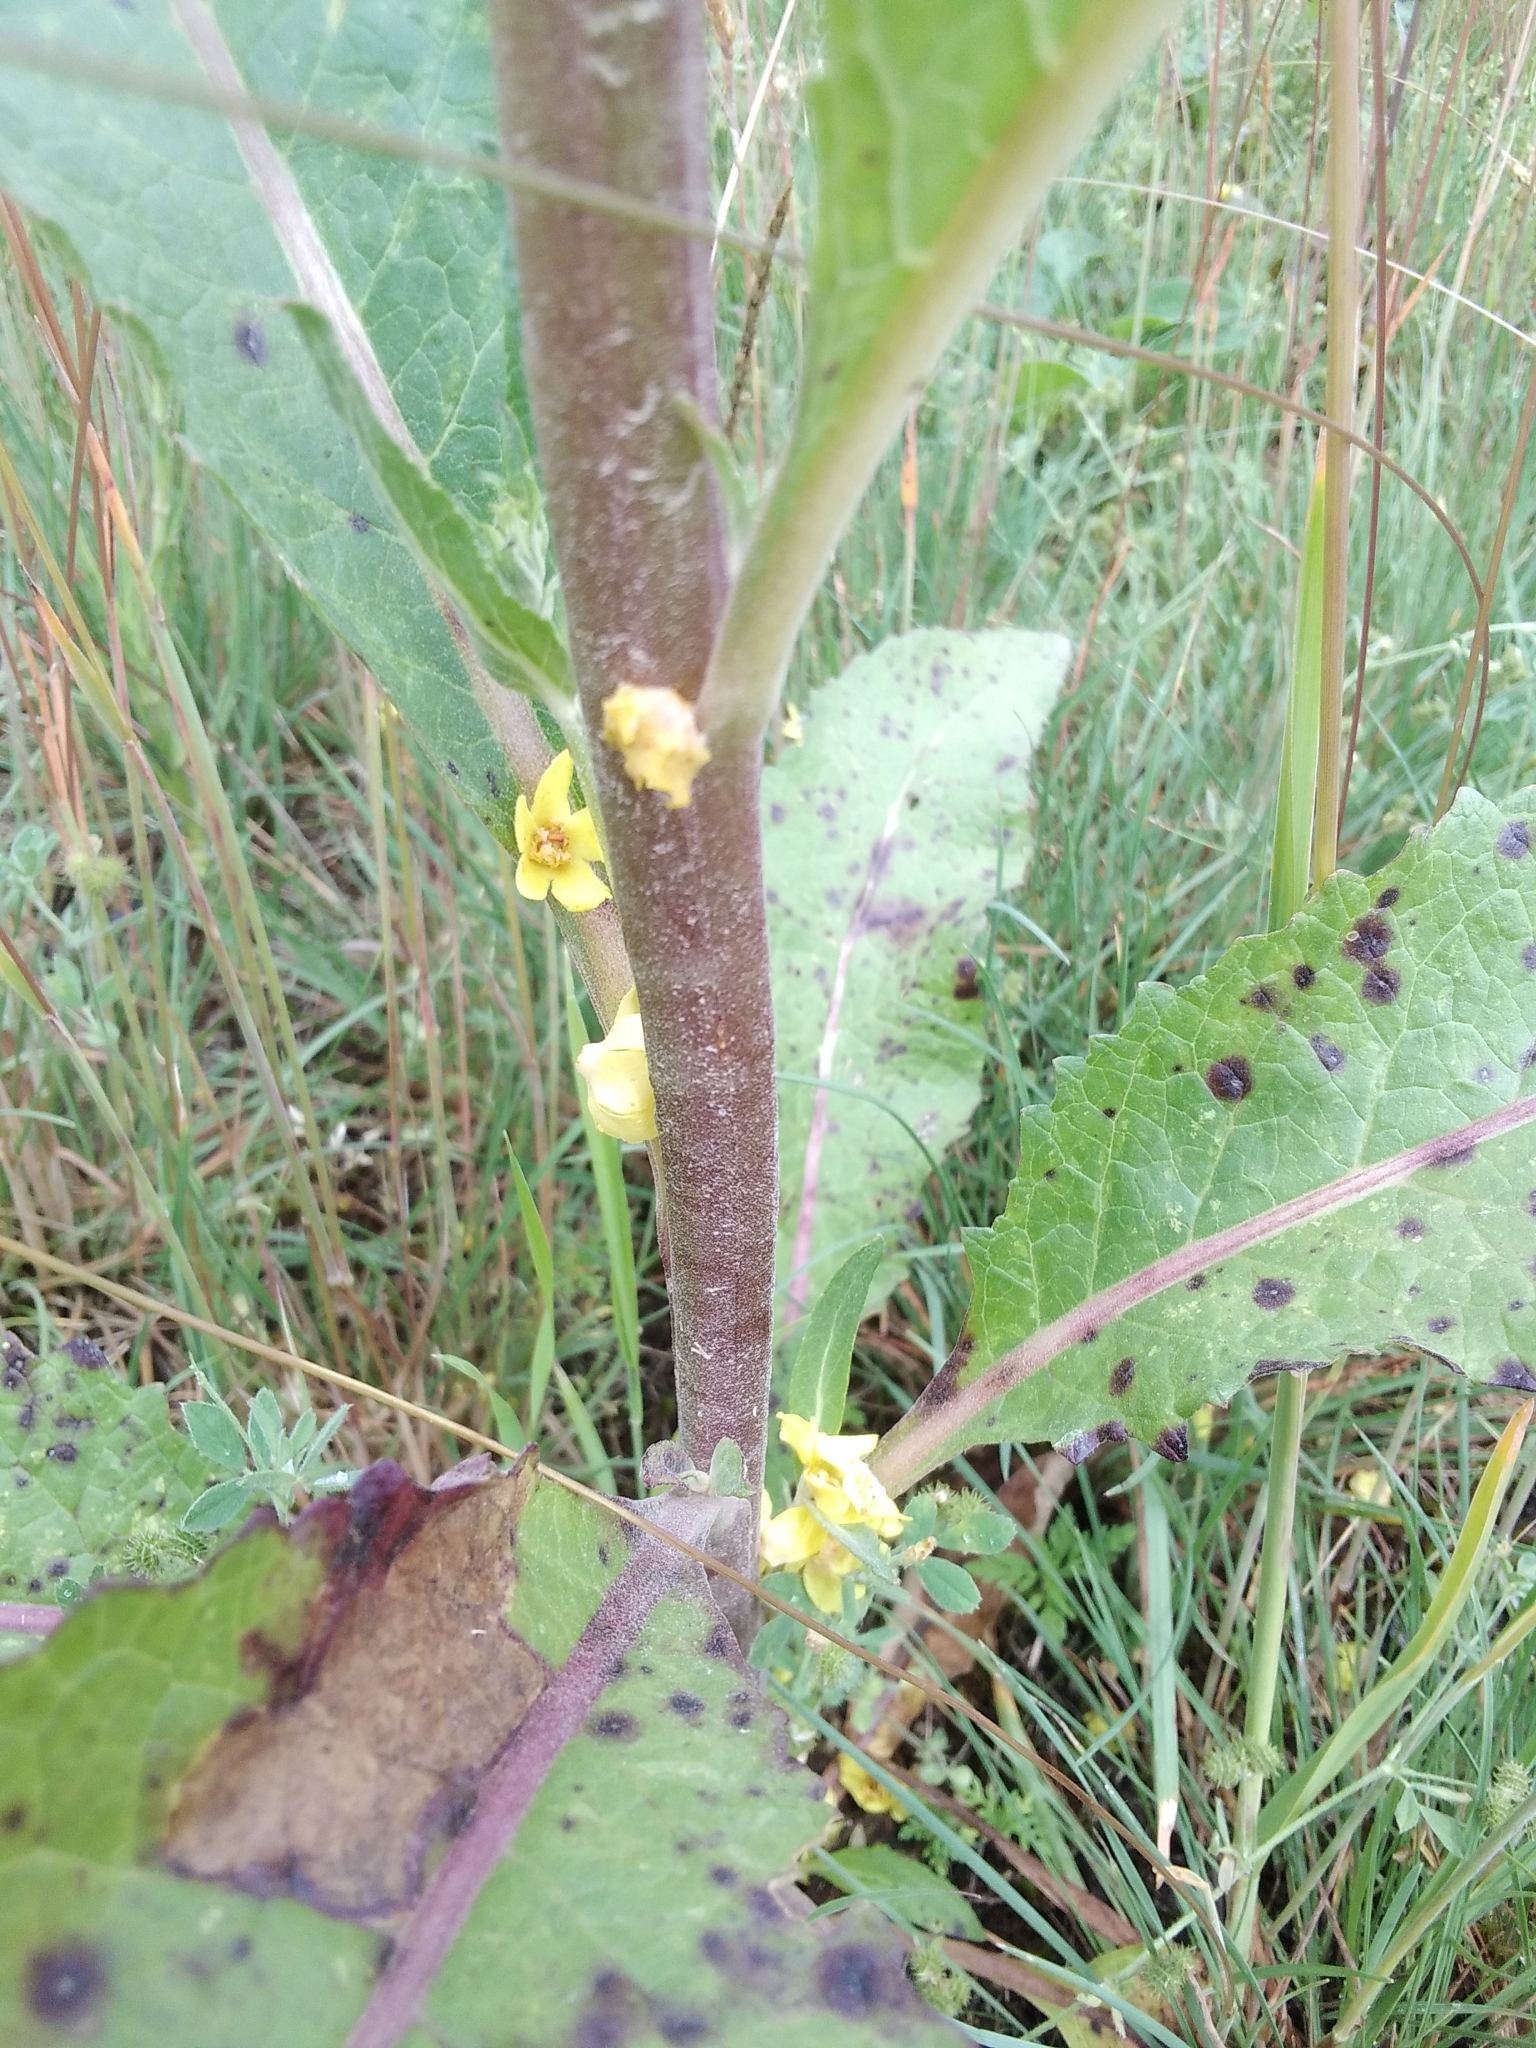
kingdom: Plantae
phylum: Tracheophyta
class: Magnoliopsida
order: Lamiales
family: Scrophulariaceae
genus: Verbascum
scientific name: Verbascum lychnitis
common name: White mullein
